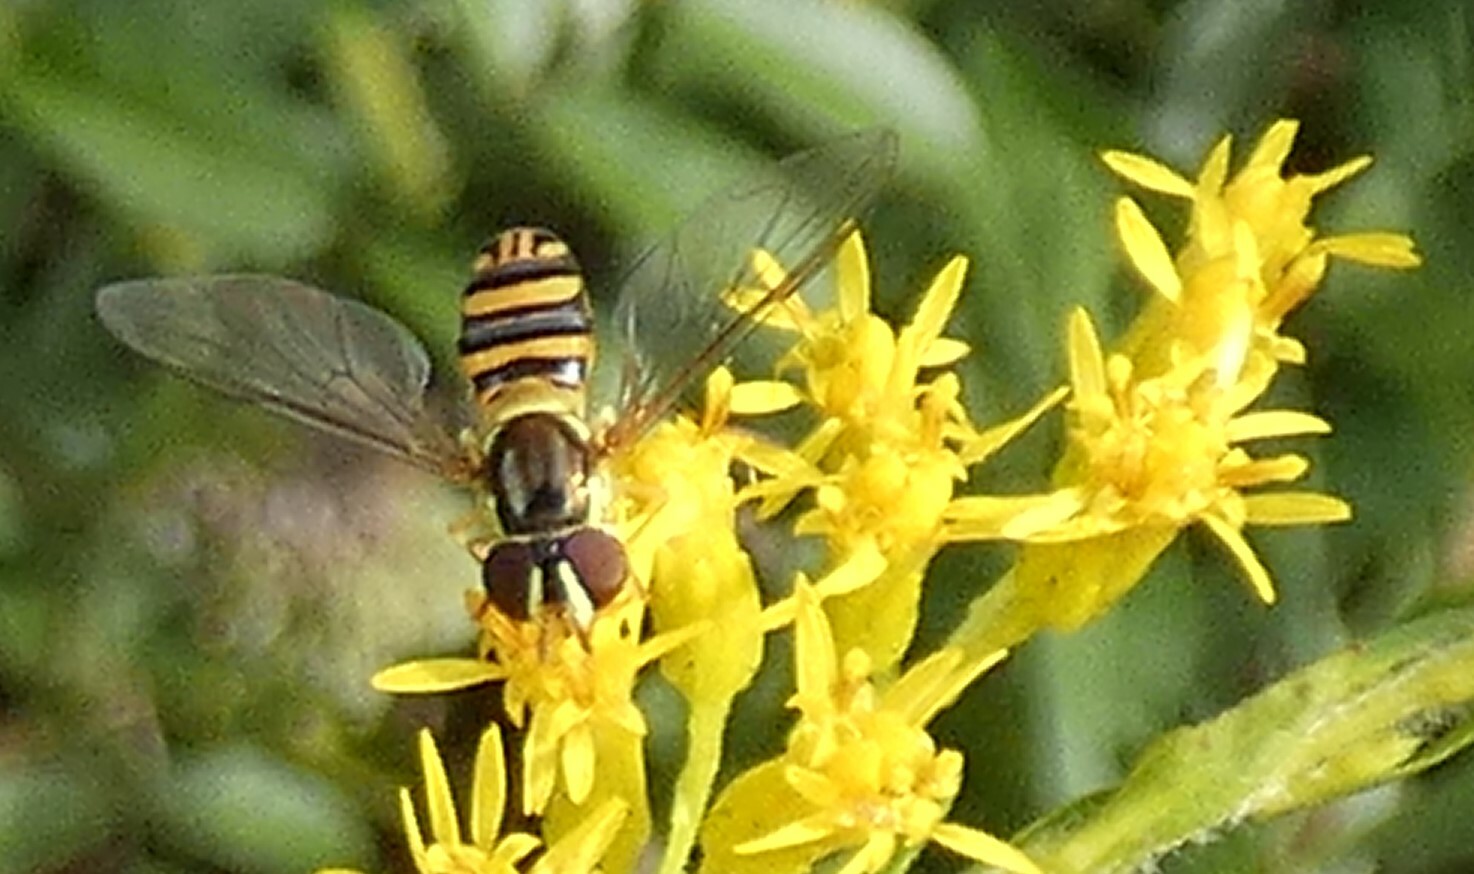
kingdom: Animalia
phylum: Arthropoda
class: Insecta
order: Diptera
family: Syrphidae
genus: Allograpta
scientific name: Allograpta obliqua
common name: Common oblique syrphid
